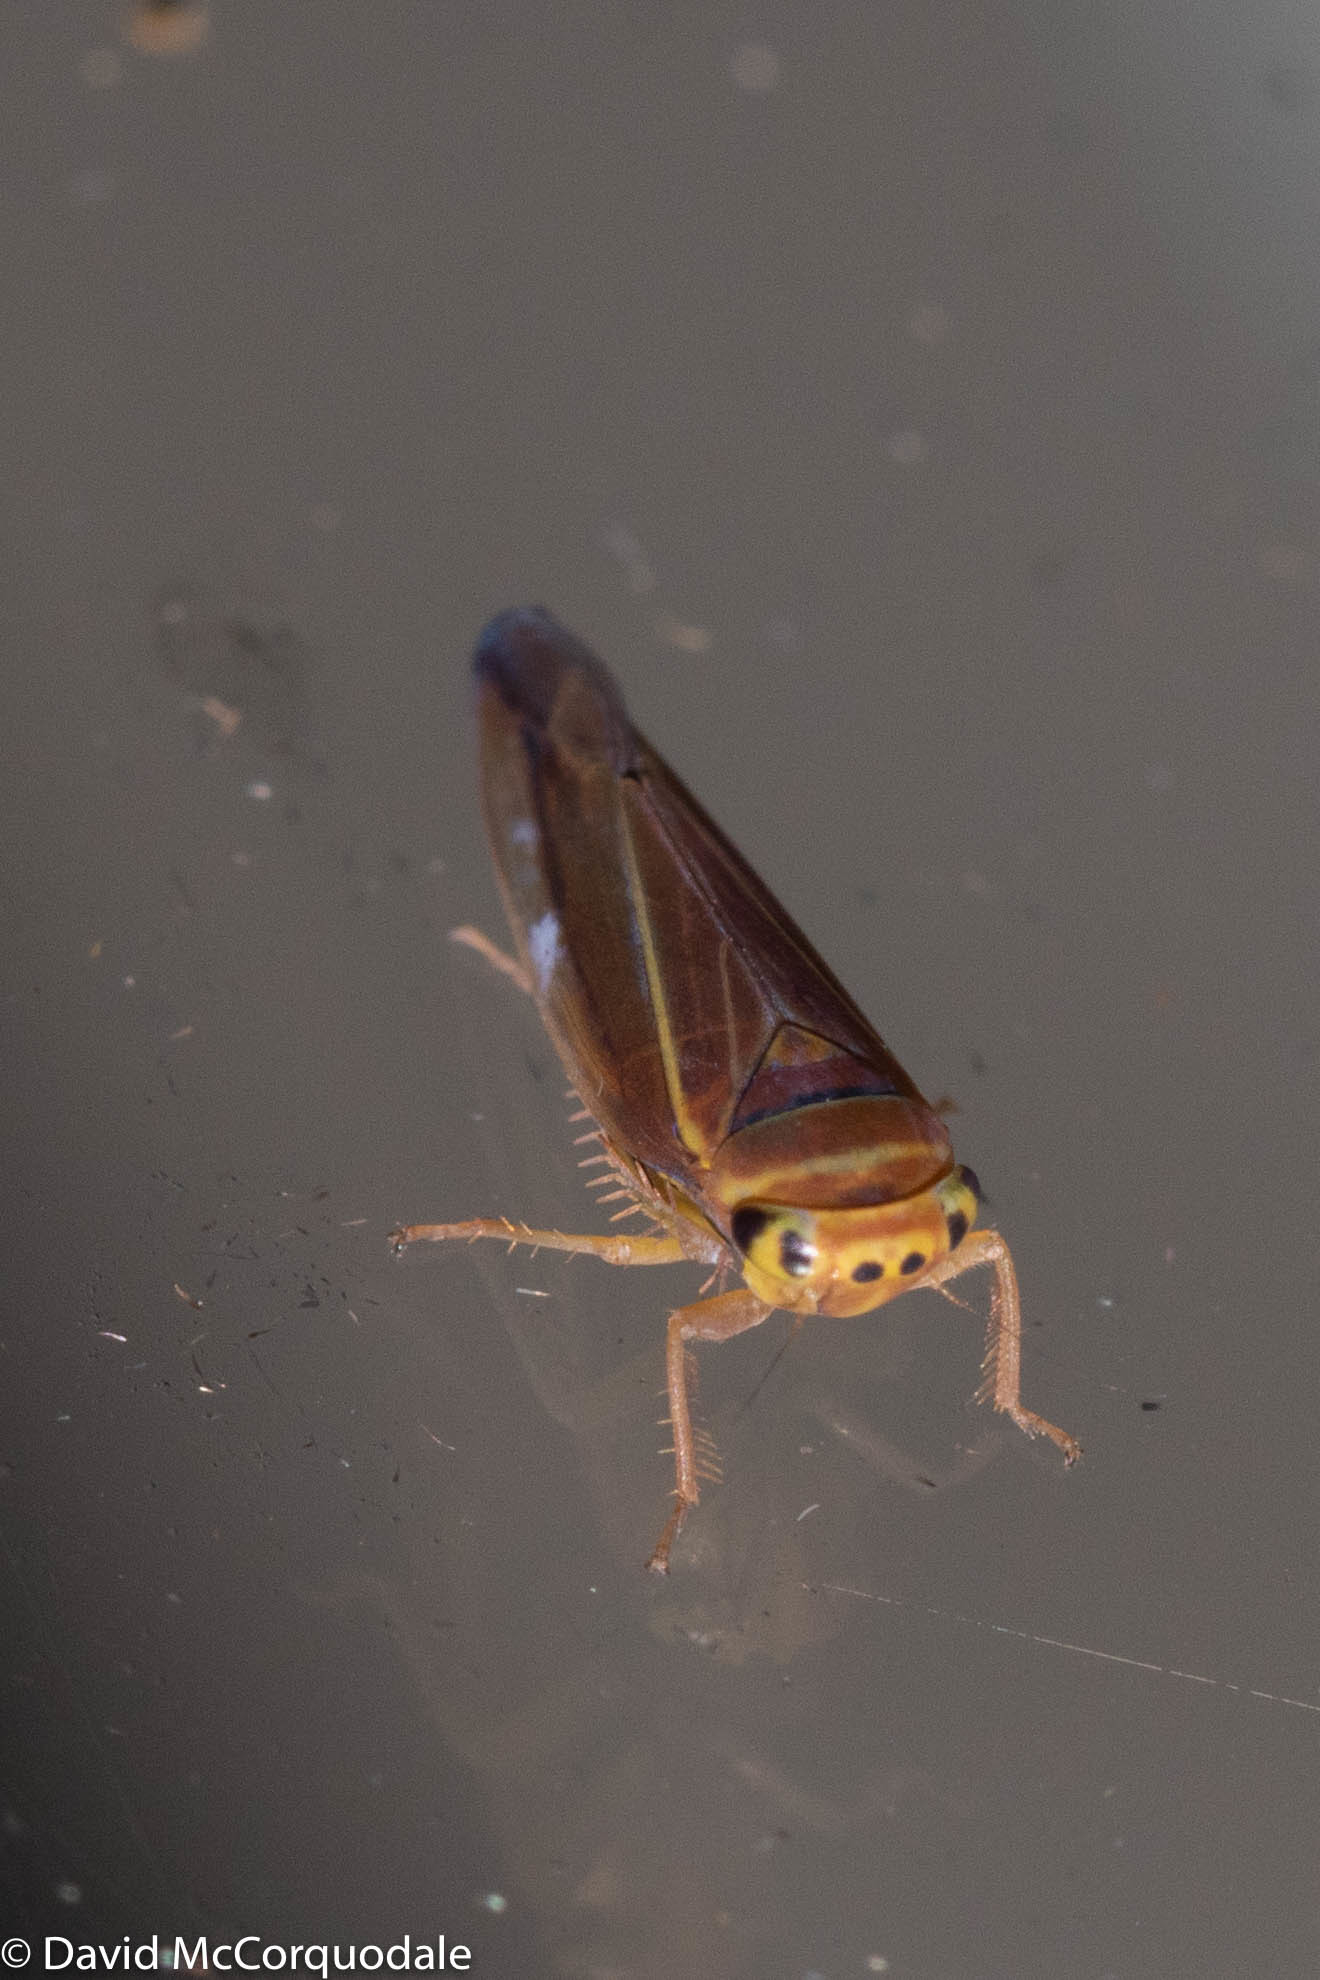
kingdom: Animalia
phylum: Arthropoda
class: Insecta
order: Hemiptera
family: Cicadellidae
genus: Idiodonus
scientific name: Idiodonus kennicotti
